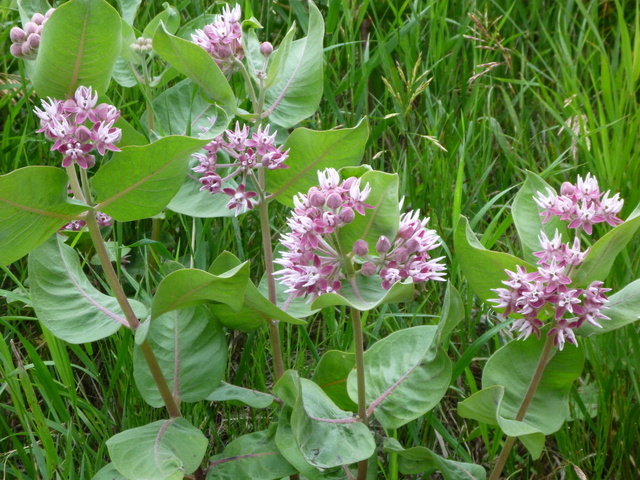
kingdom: Plantae
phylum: Tracheophyta
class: Magnoliopsida
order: Gentianales
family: Apocynaceae
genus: Asclepias
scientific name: Asclepias speciosa
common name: Showy milkweed
